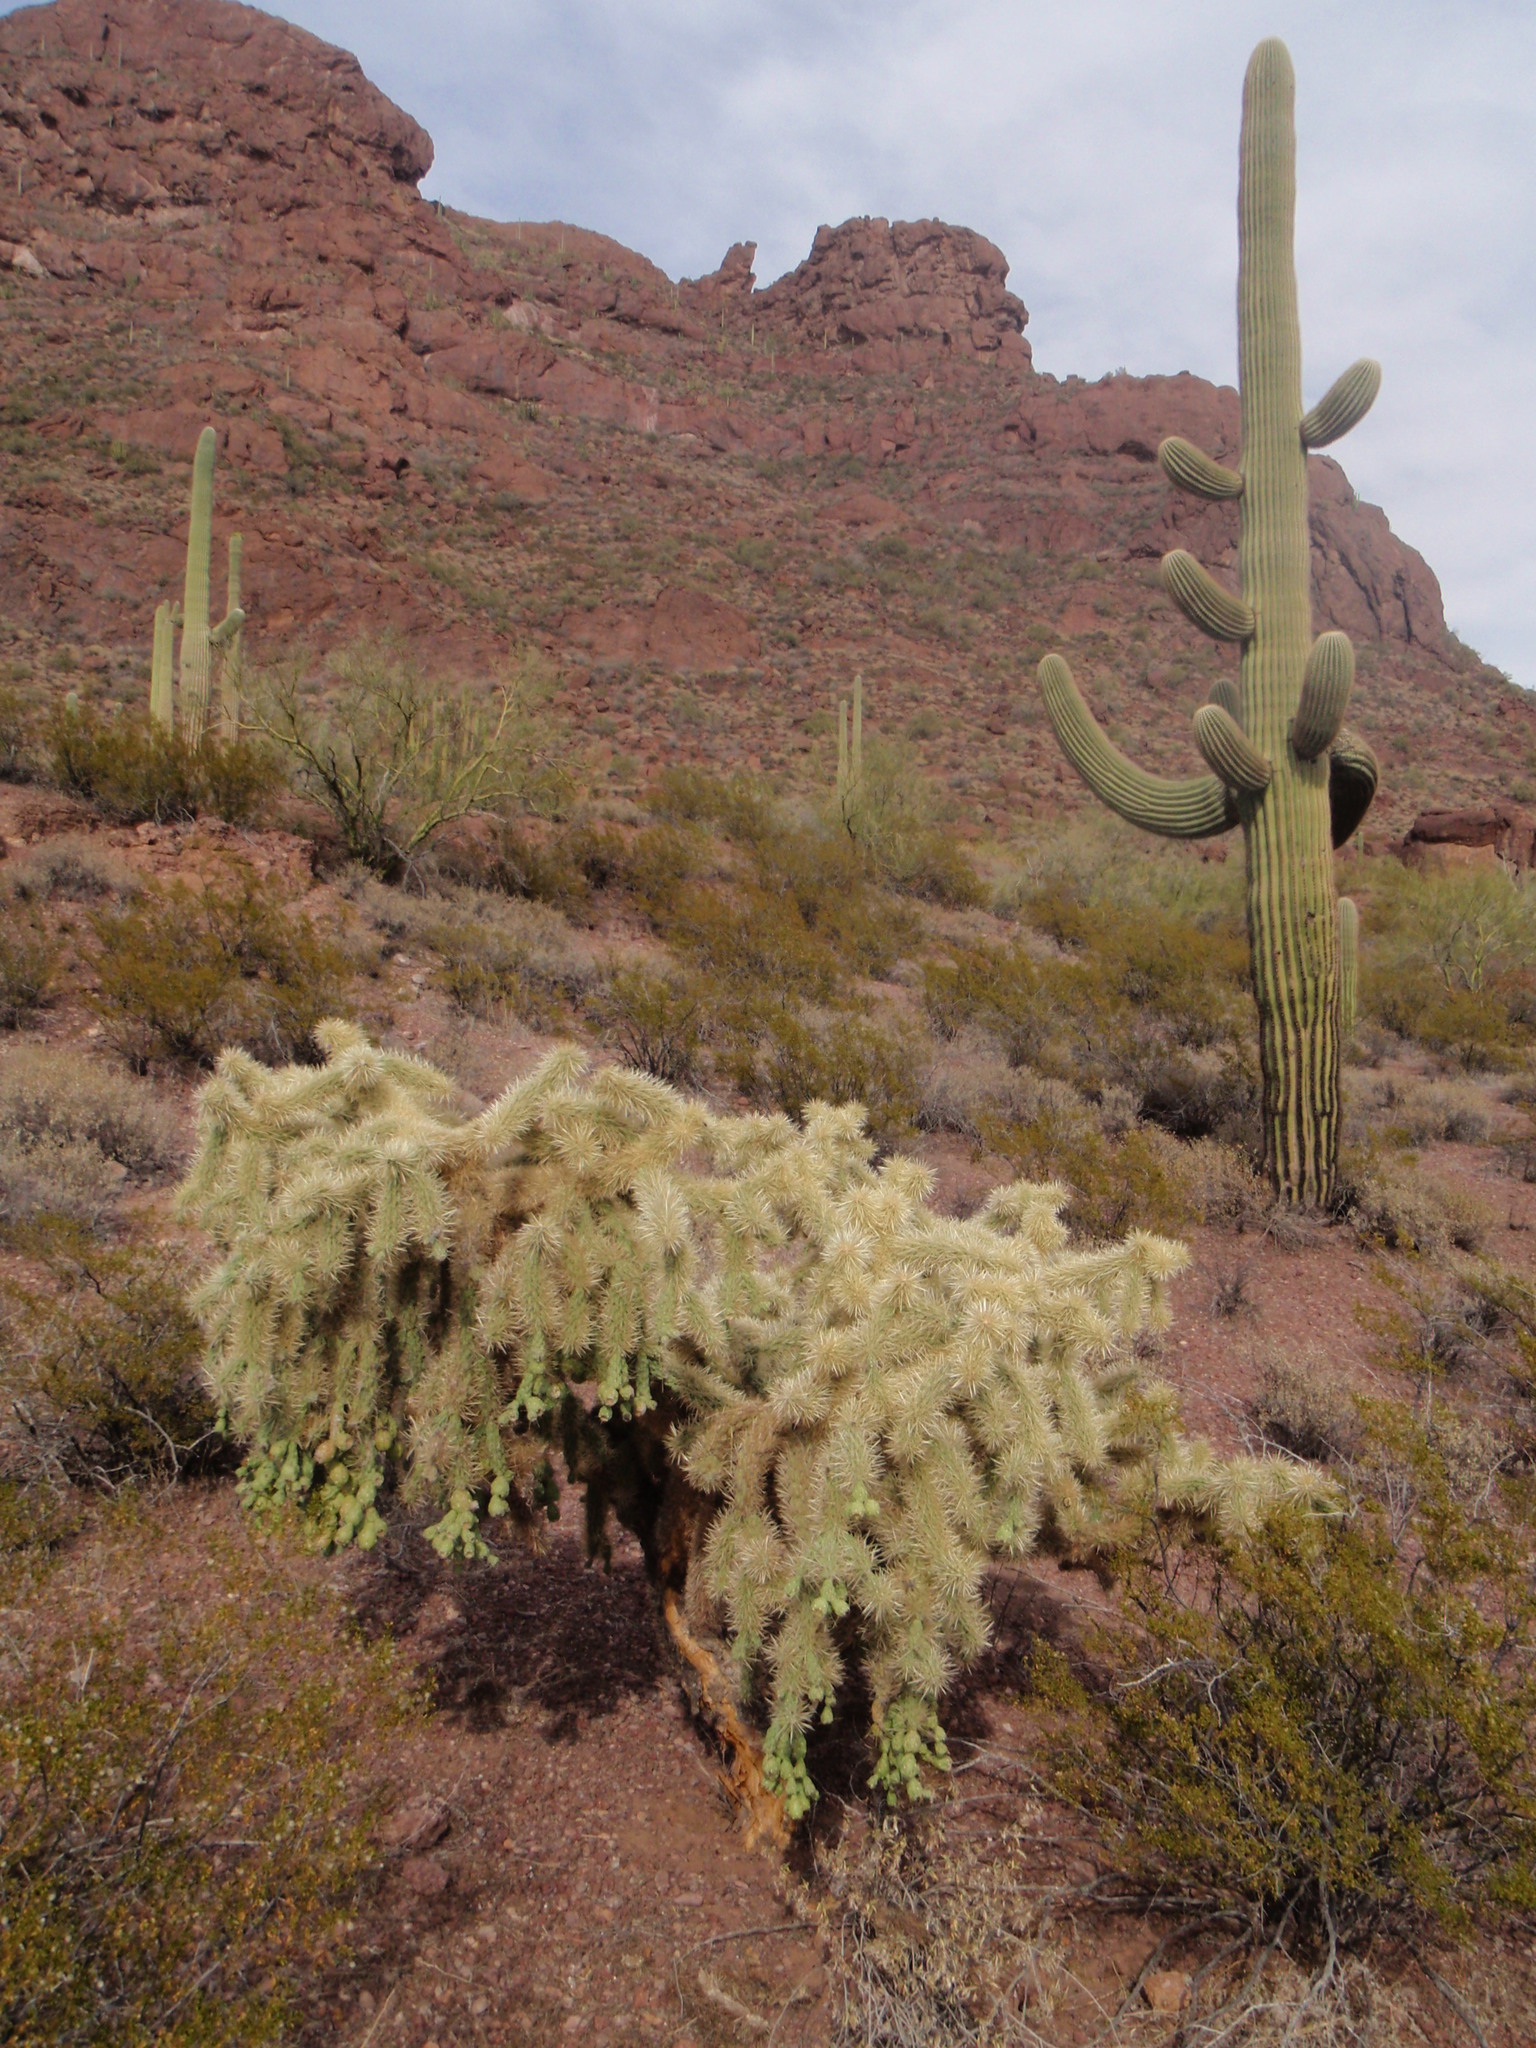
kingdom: Plantae
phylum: Tracheophyta
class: Magnoliopsida
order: Caryophyllales
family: Cactaceae
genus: Cylindropuntia
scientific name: Cylindropuntia fulgida
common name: Jumping cholla
